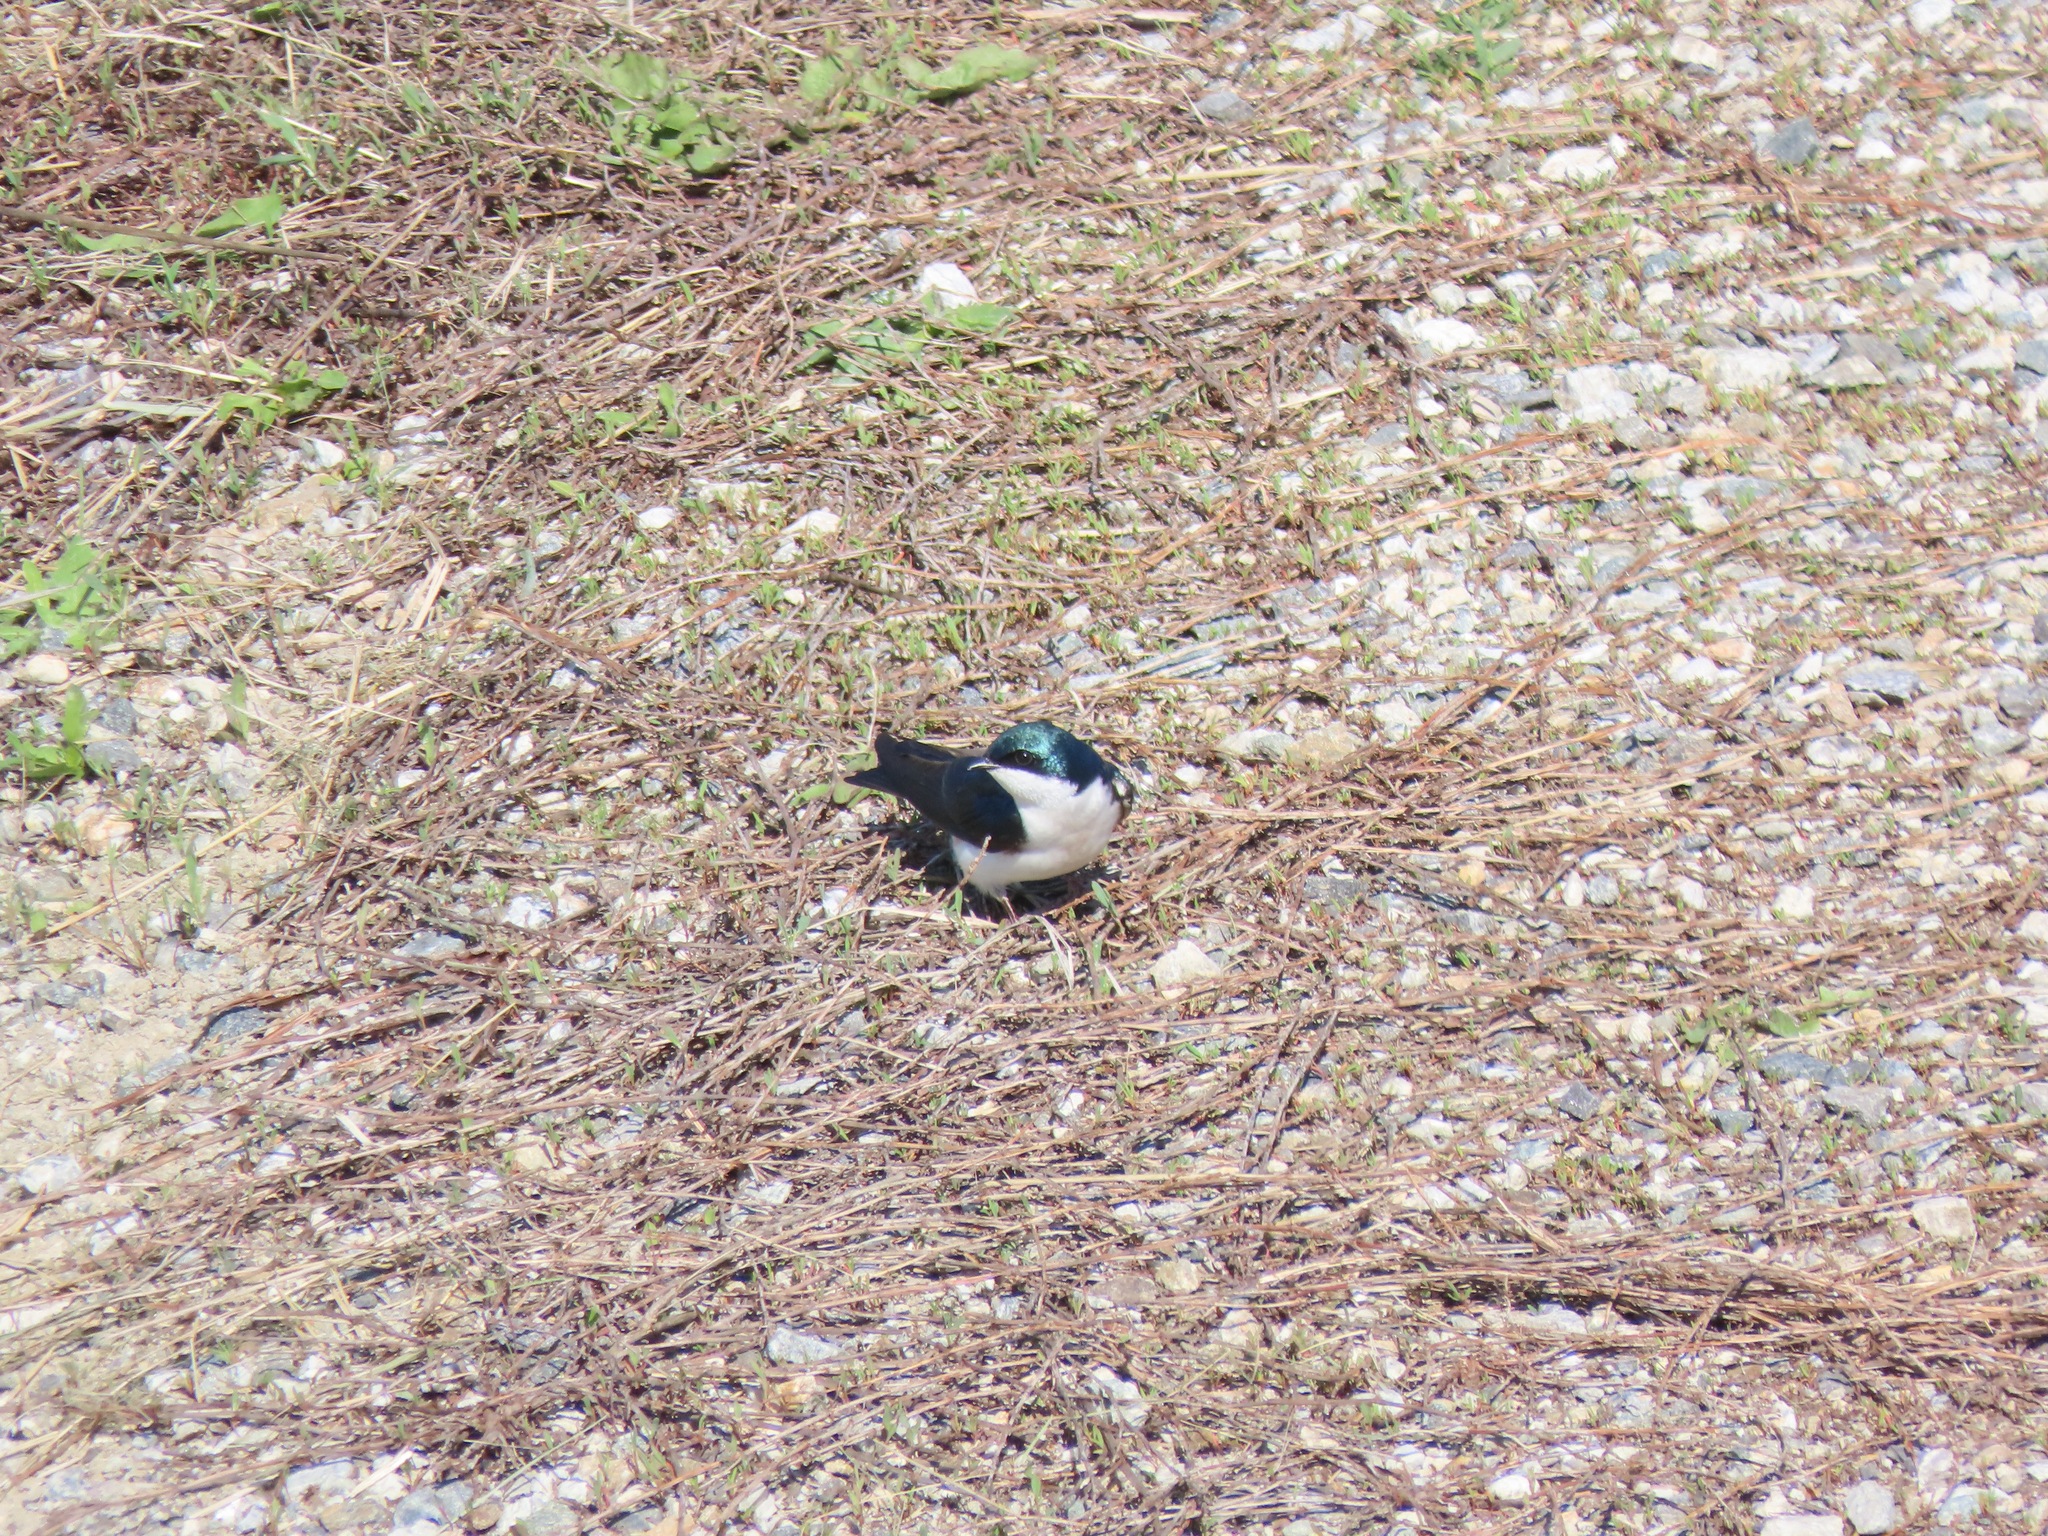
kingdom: Animalia
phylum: Chordata
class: Aves
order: Passeriformes
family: Hirundinidae
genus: Tachycineta
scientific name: Tachycineta bicolor
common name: Tree swallow
